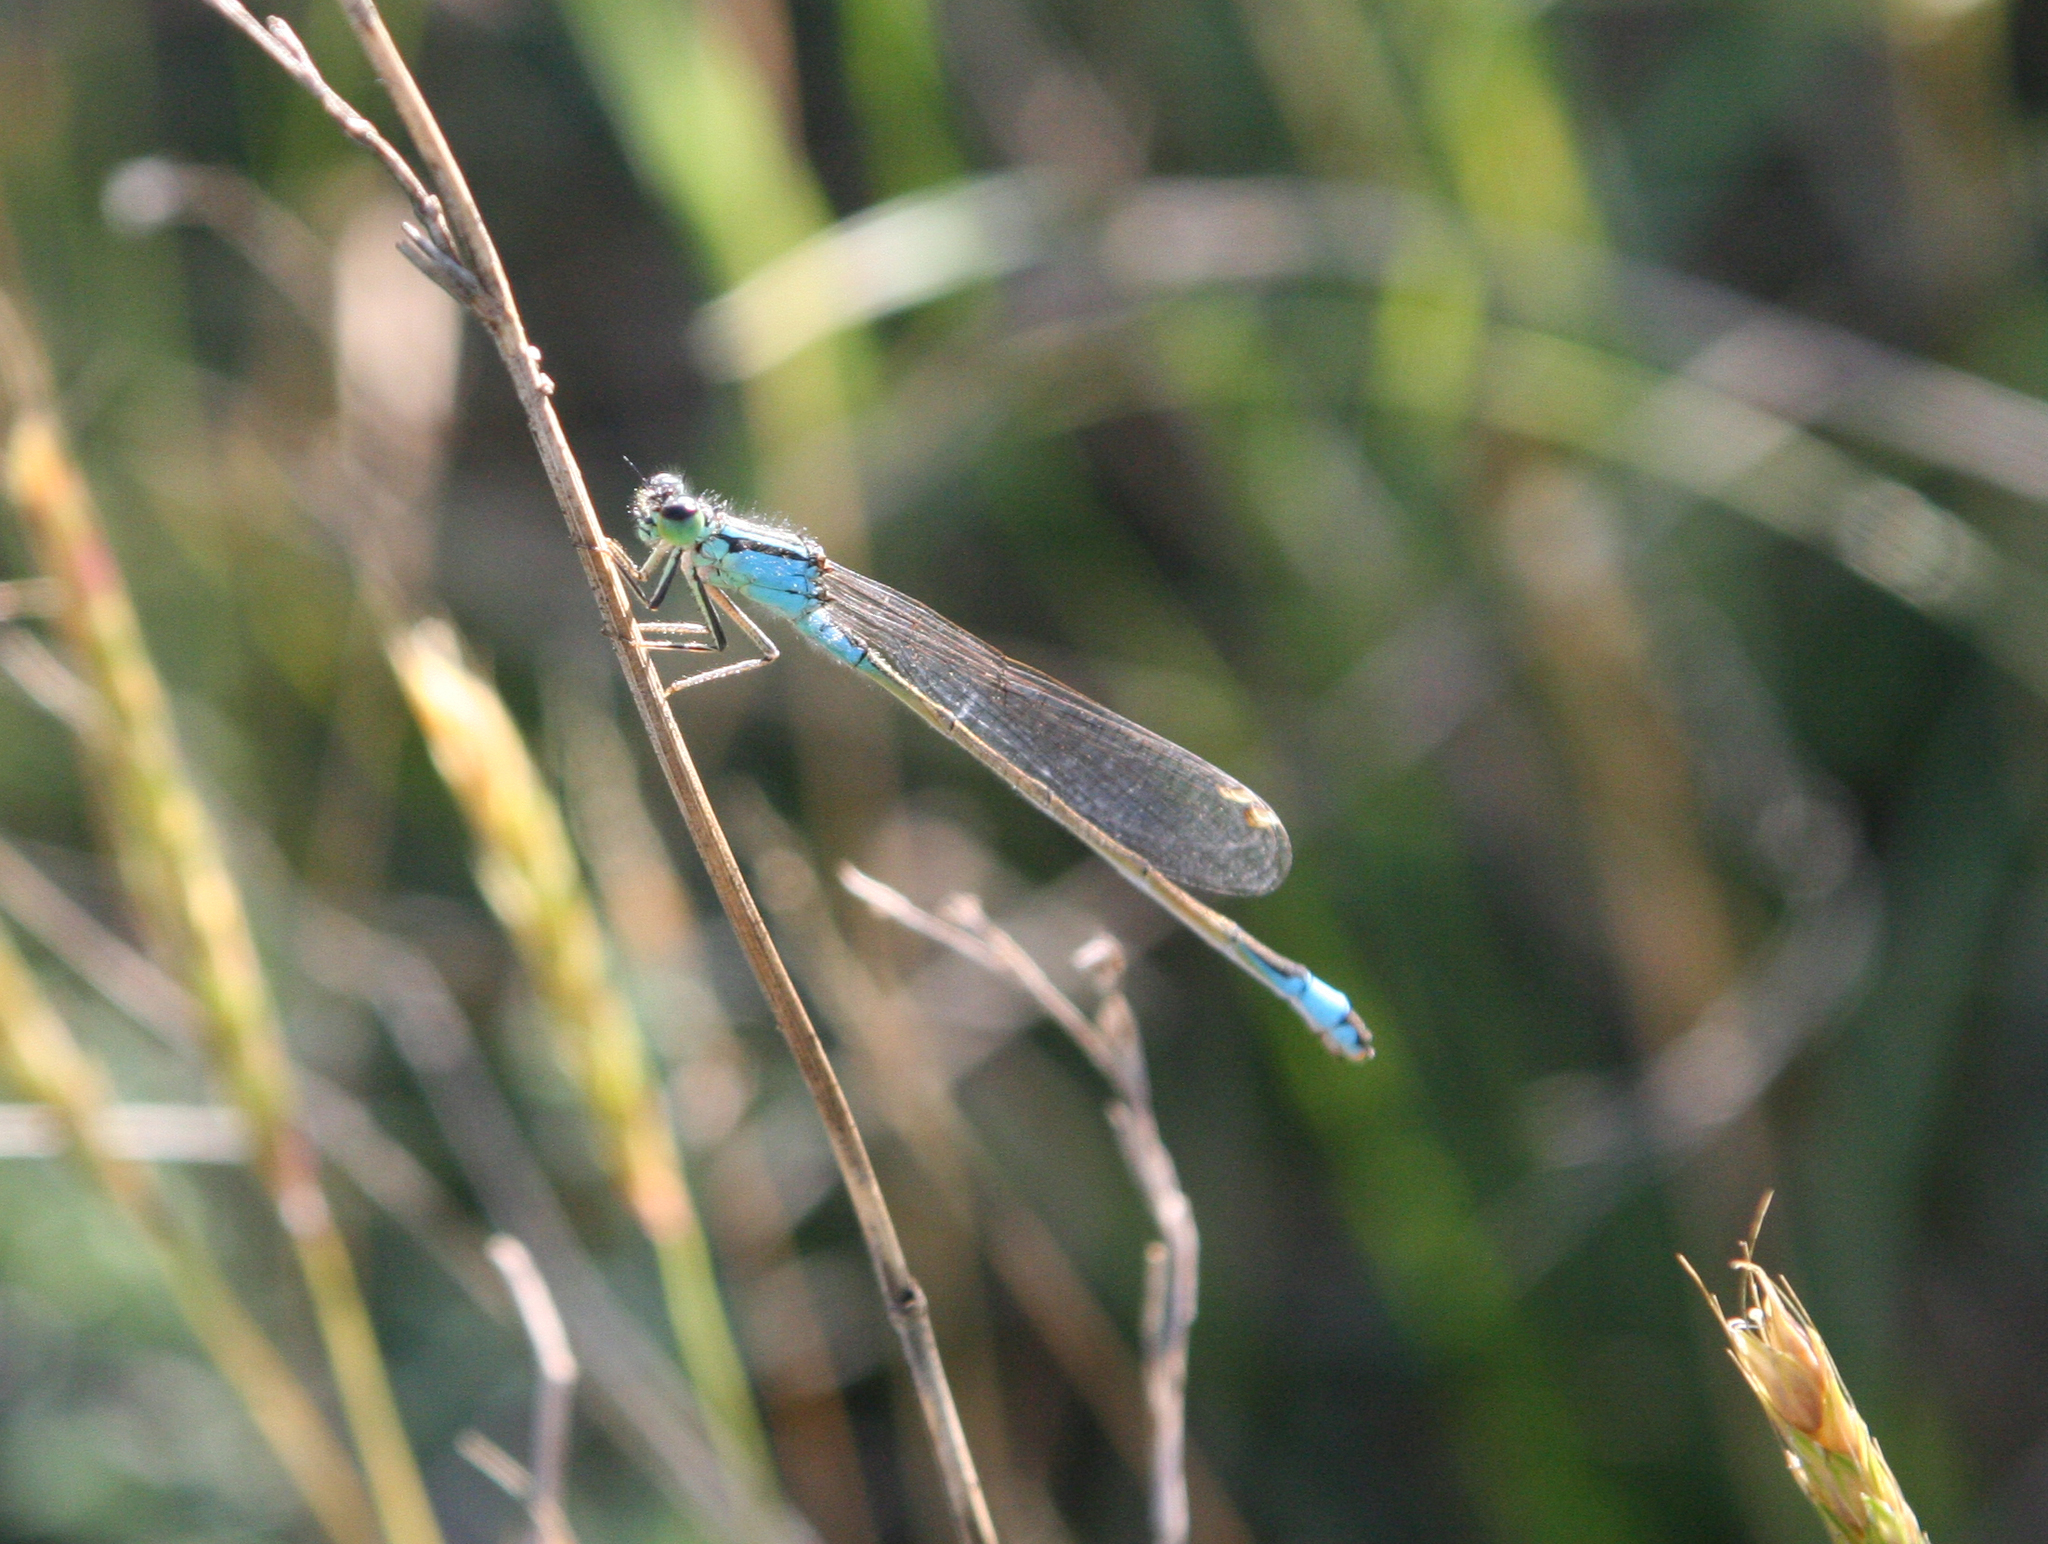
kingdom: Animalia
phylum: Arthropoda
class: Insecta
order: Odonata
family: Coenagrionidae
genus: Ischnura
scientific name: Ischnura elegans
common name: Blue-tailed damselfly
